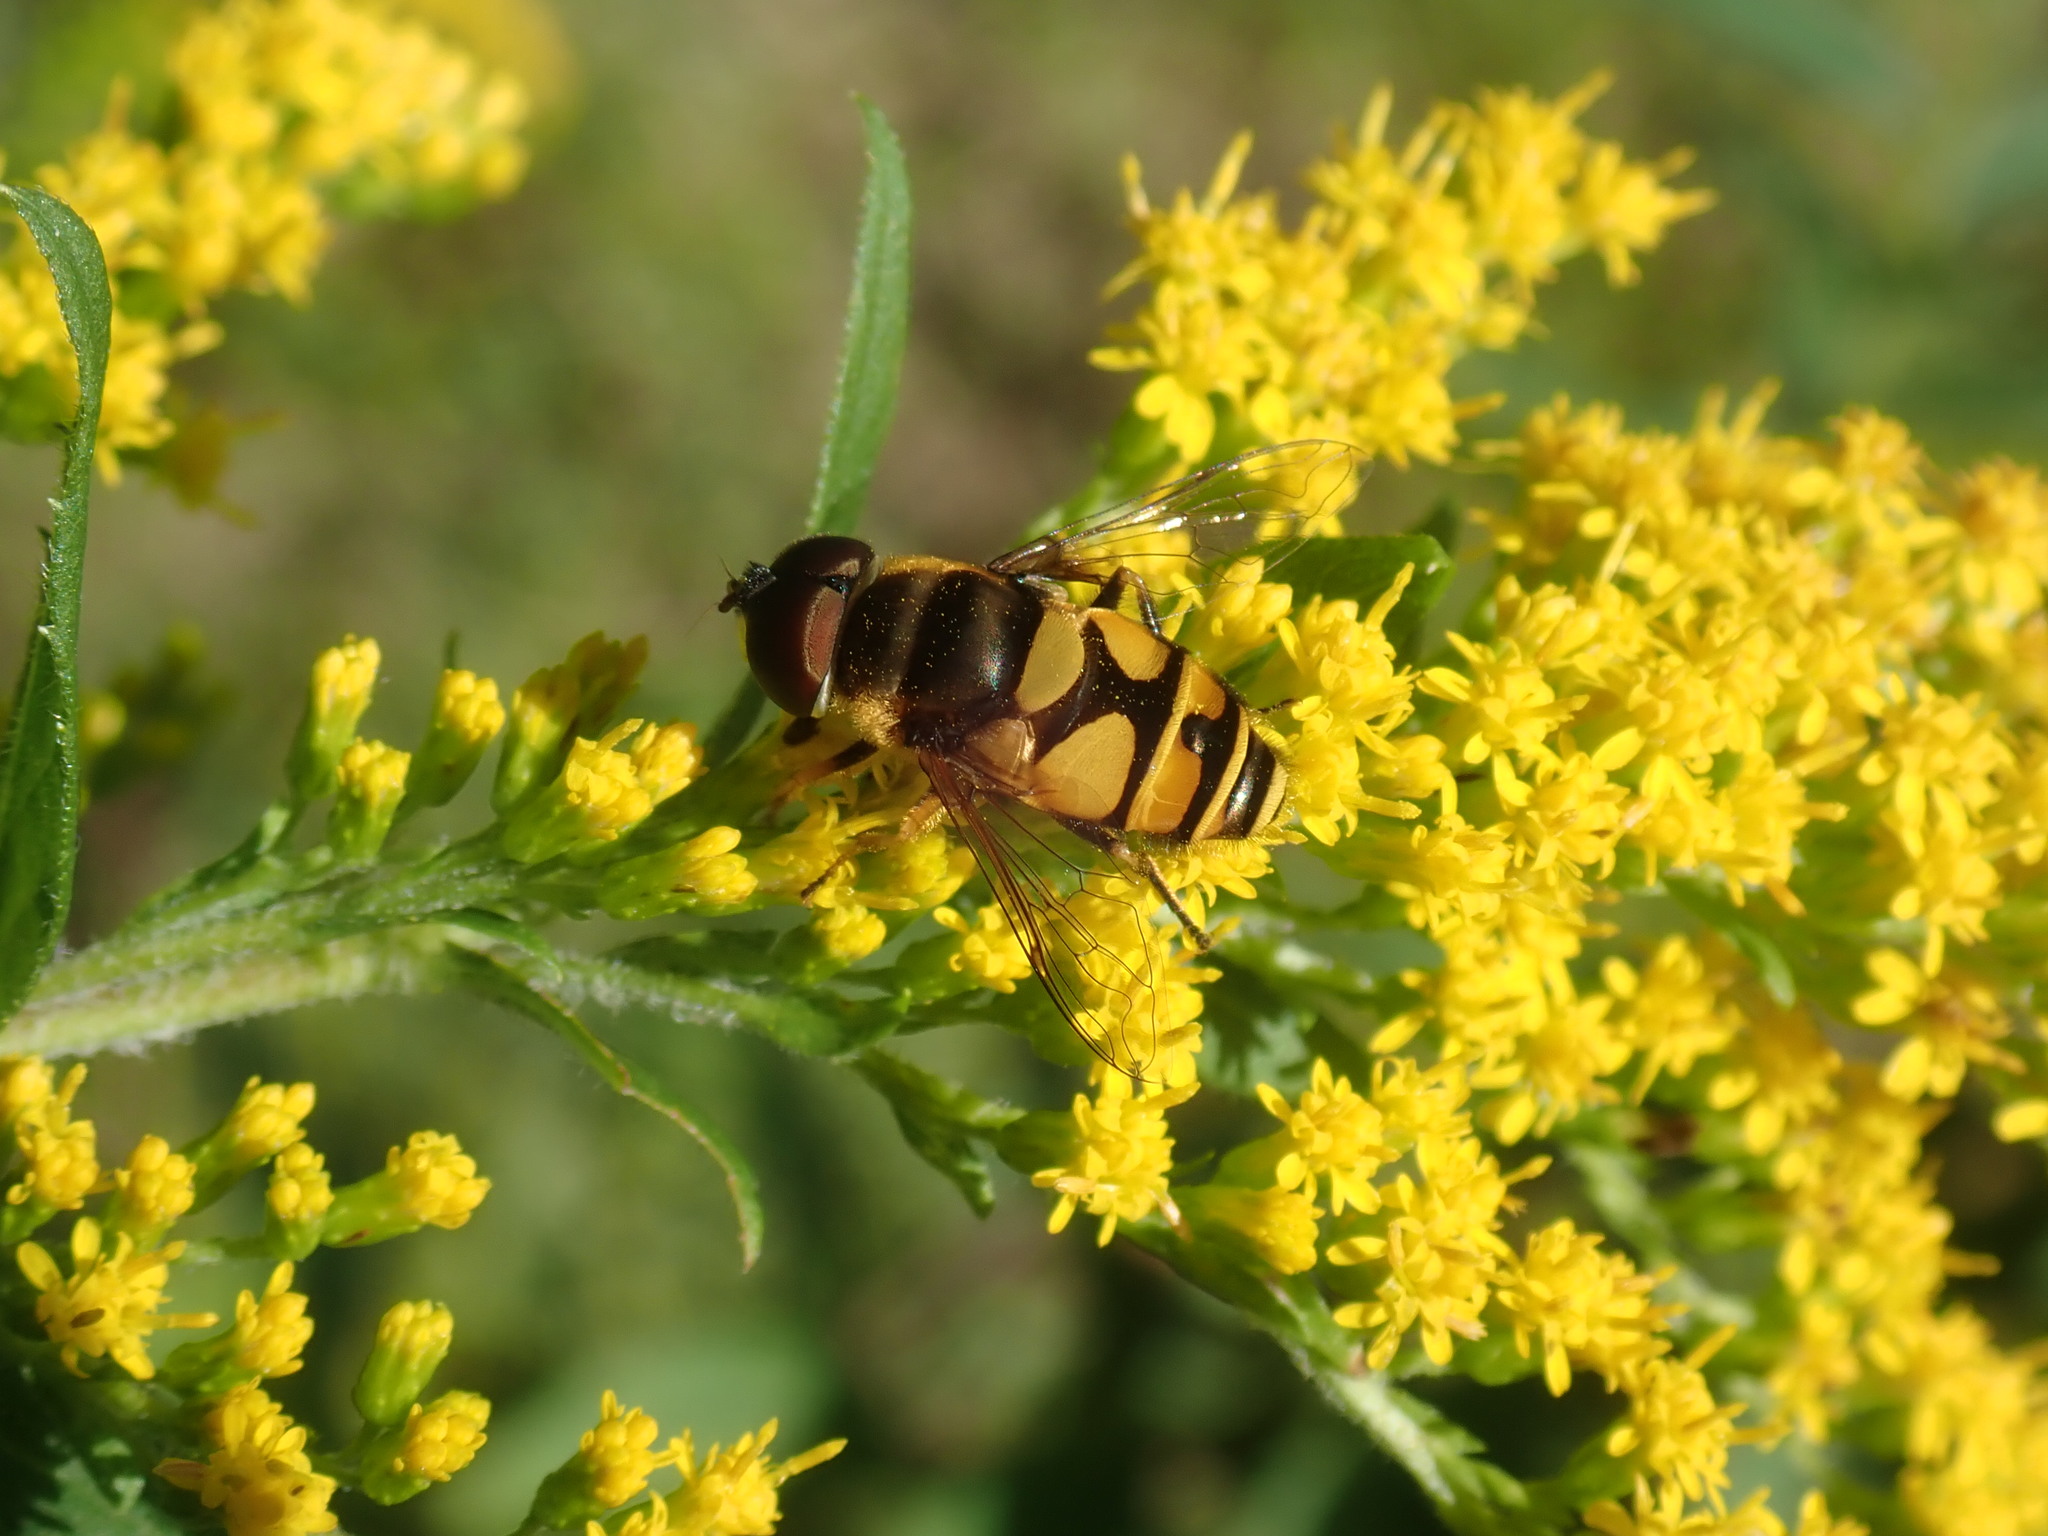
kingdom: Animalia
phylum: Arthropoda
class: Insecta
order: Diptera
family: Syrphidae
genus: Eristalis
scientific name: Eristalis transversa
